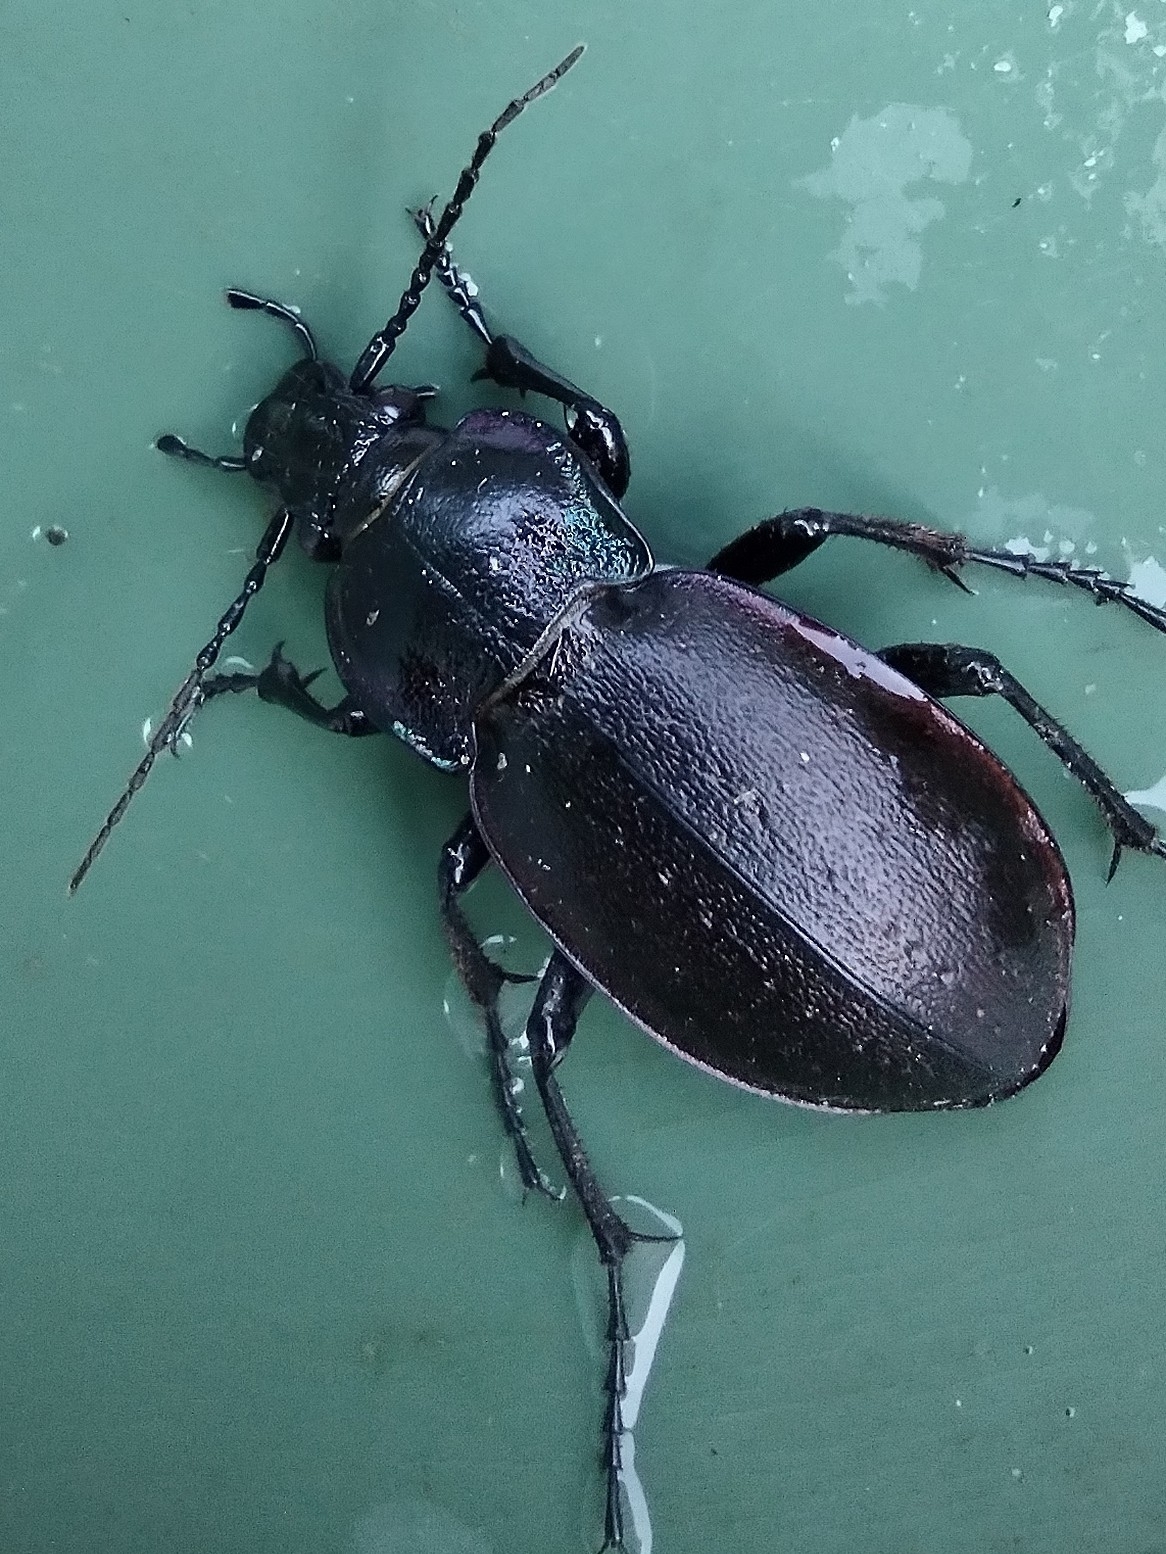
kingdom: Animalia
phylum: Arthropoda
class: Insecta
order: Coleoptera
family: Carabidae
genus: Carabus
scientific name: Carabus nemoralis
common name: European ground beetle
